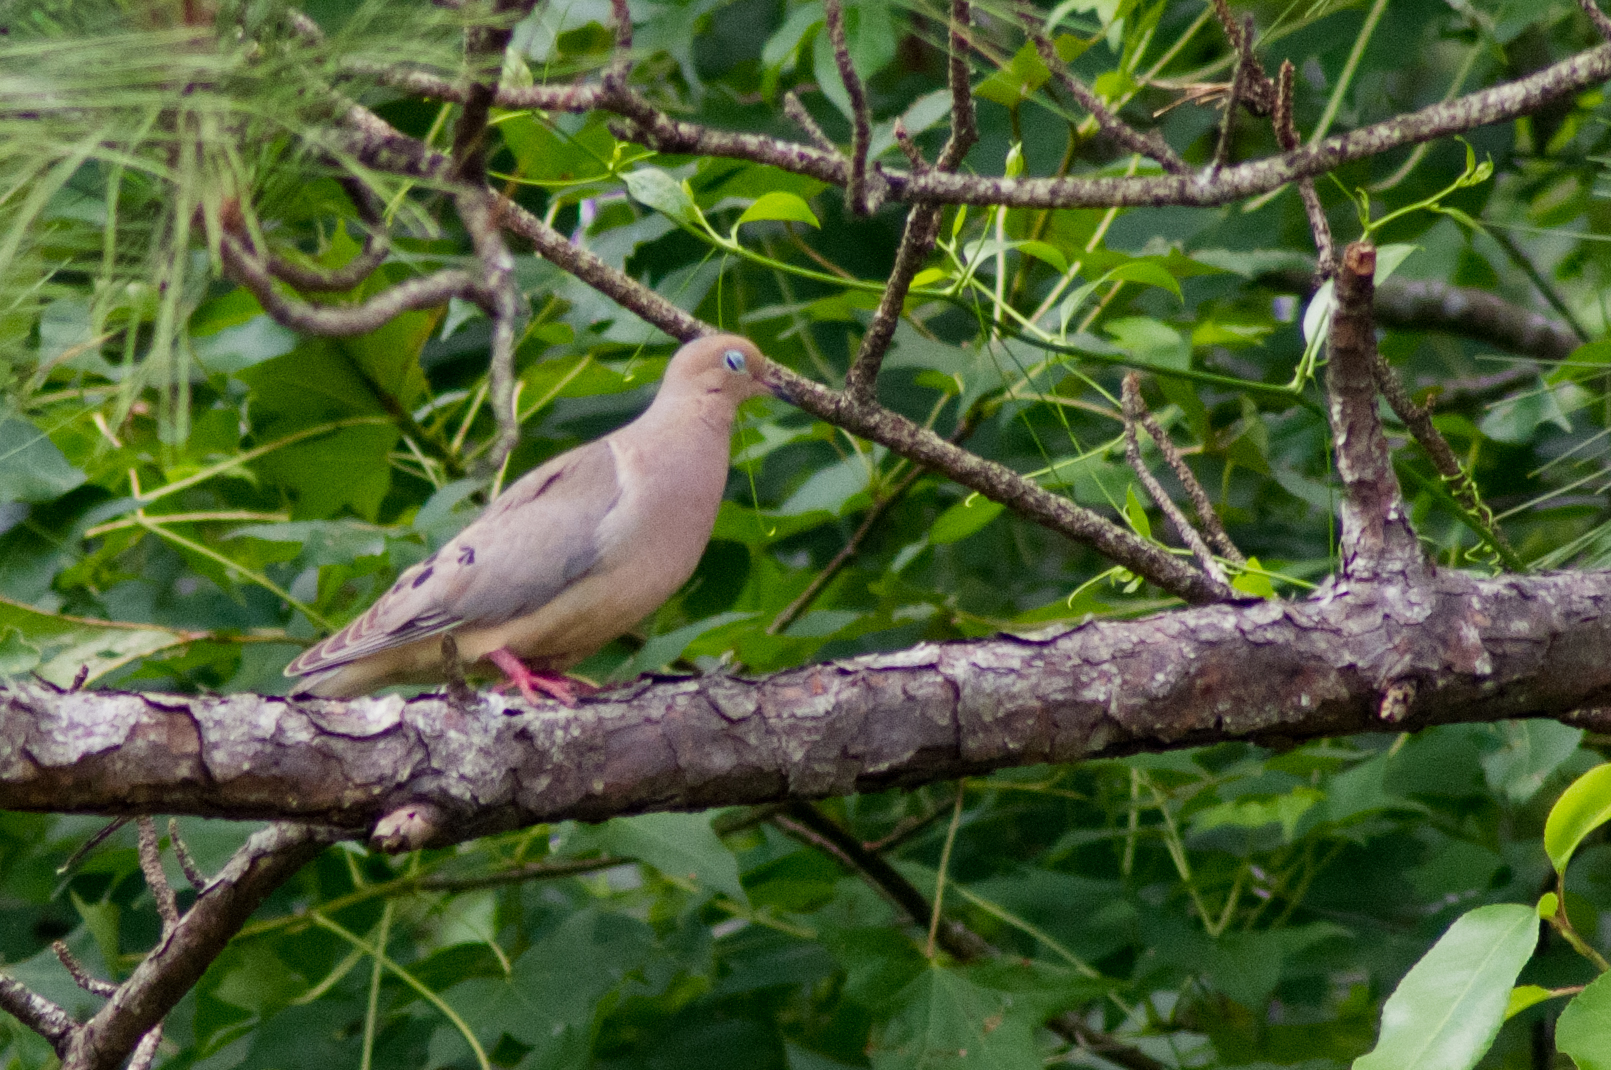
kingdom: Animalia
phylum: Chordata
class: Aves
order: Columbiformes
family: Columbidae
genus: Zenaida
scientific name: Zenaida macroura
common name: Mourning dove
